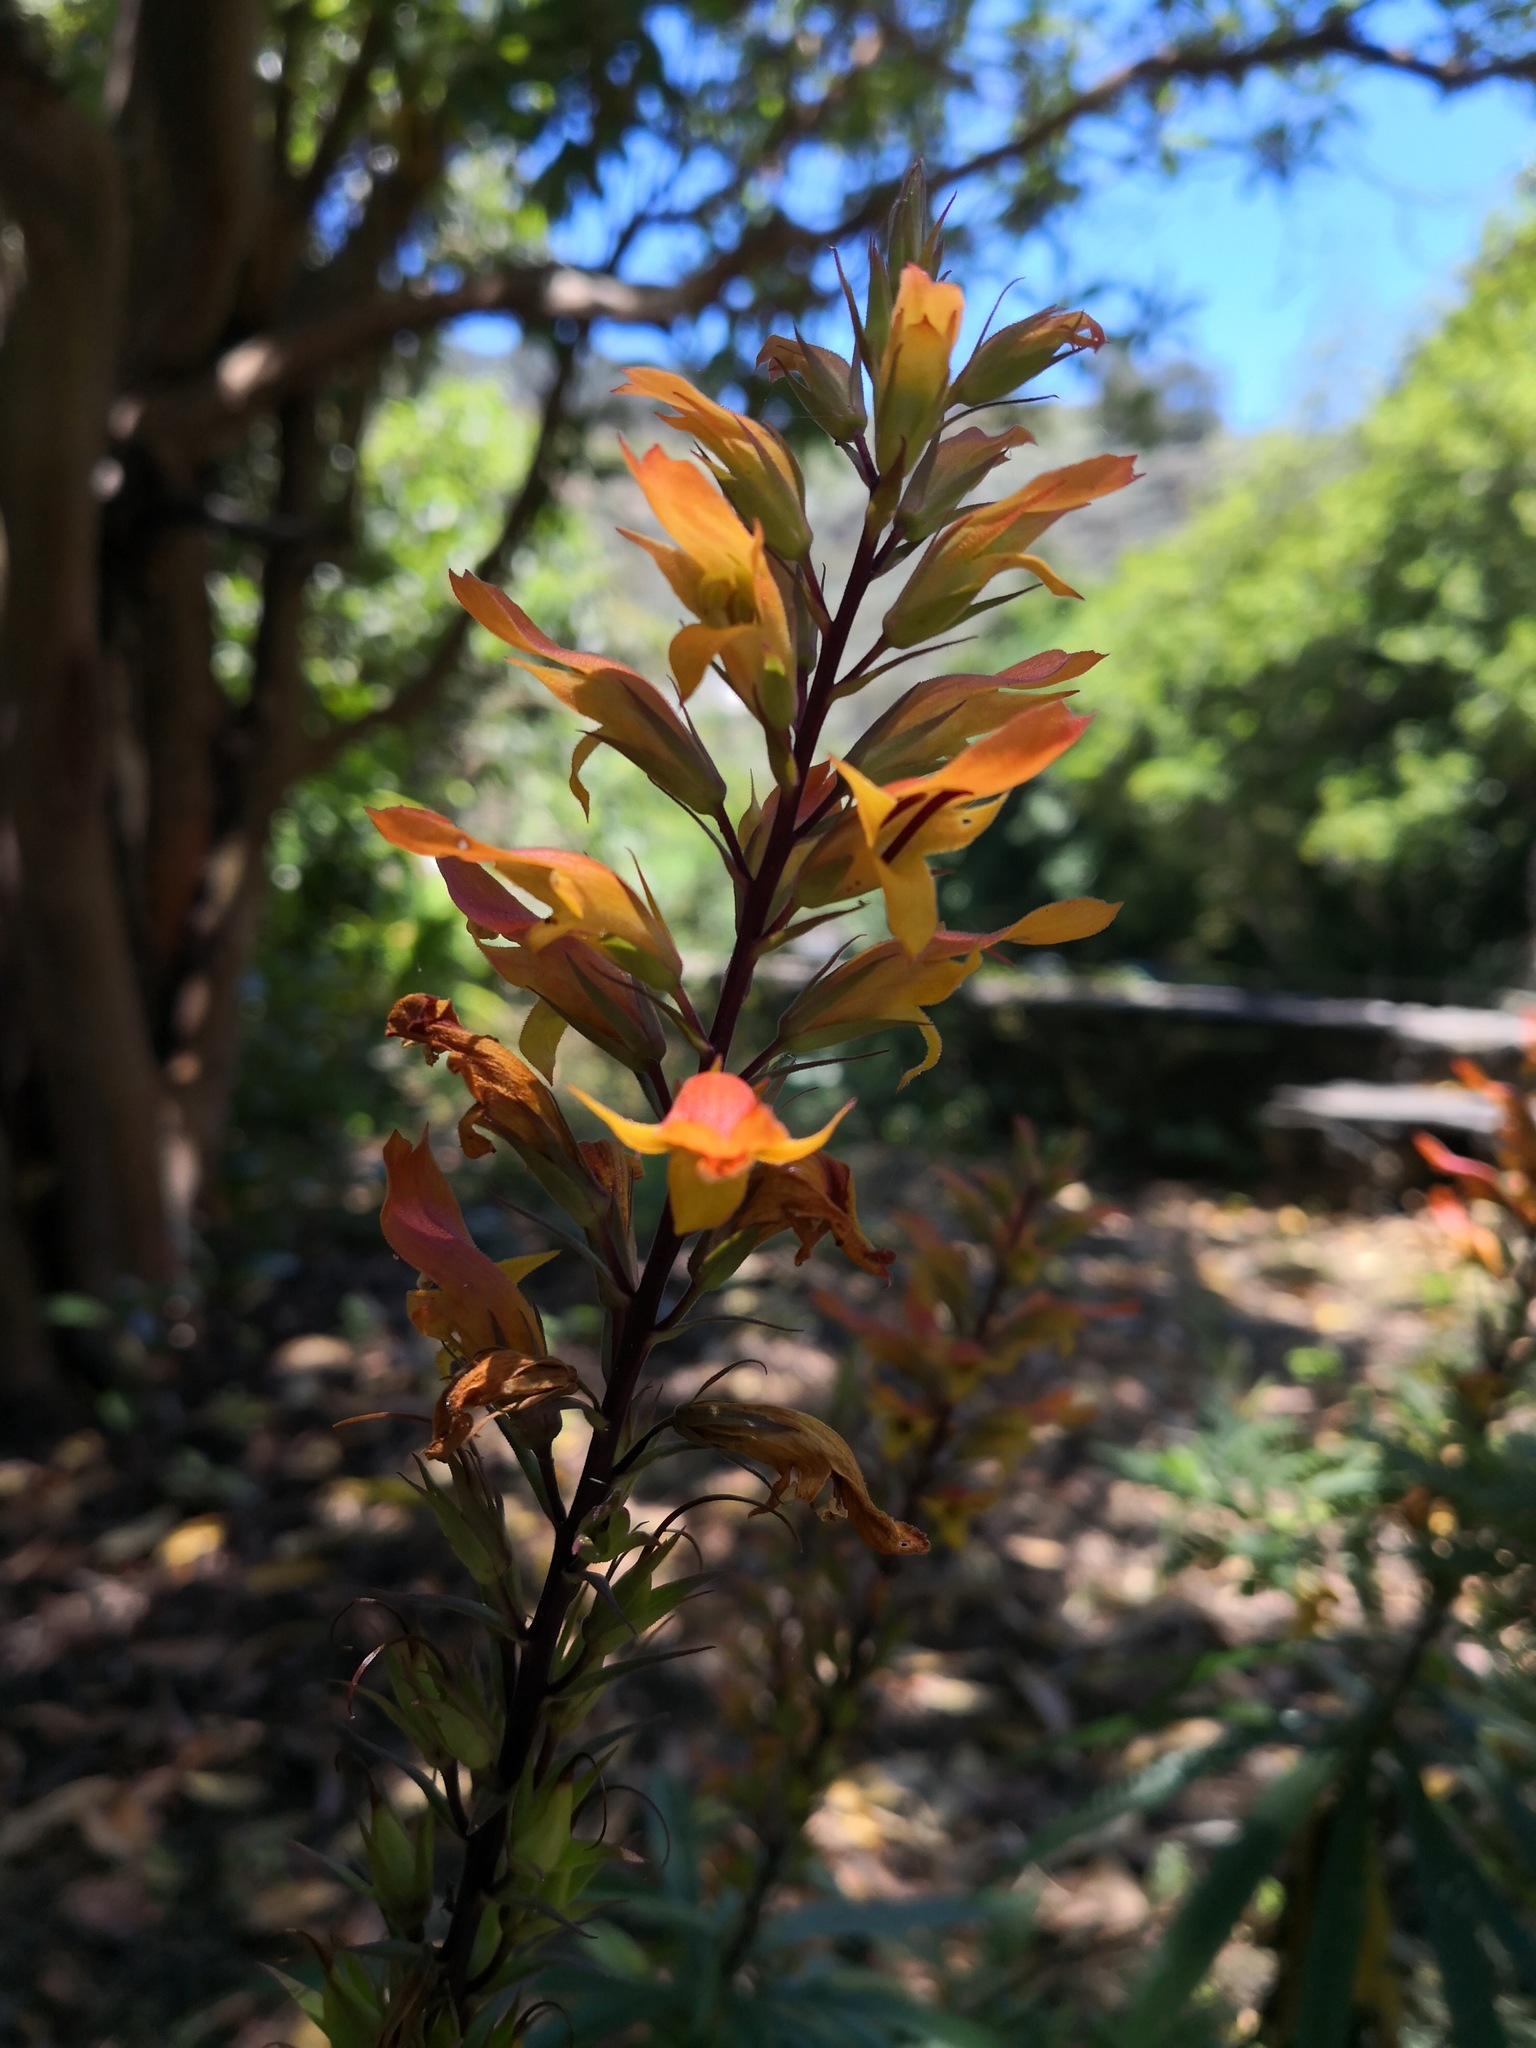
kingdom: Plantae
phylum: Tracheophyta
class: Magnoliopsida
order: Lamiales
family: Plantaginaceae
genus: Digitalis
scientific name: Digitalis chalcantha
